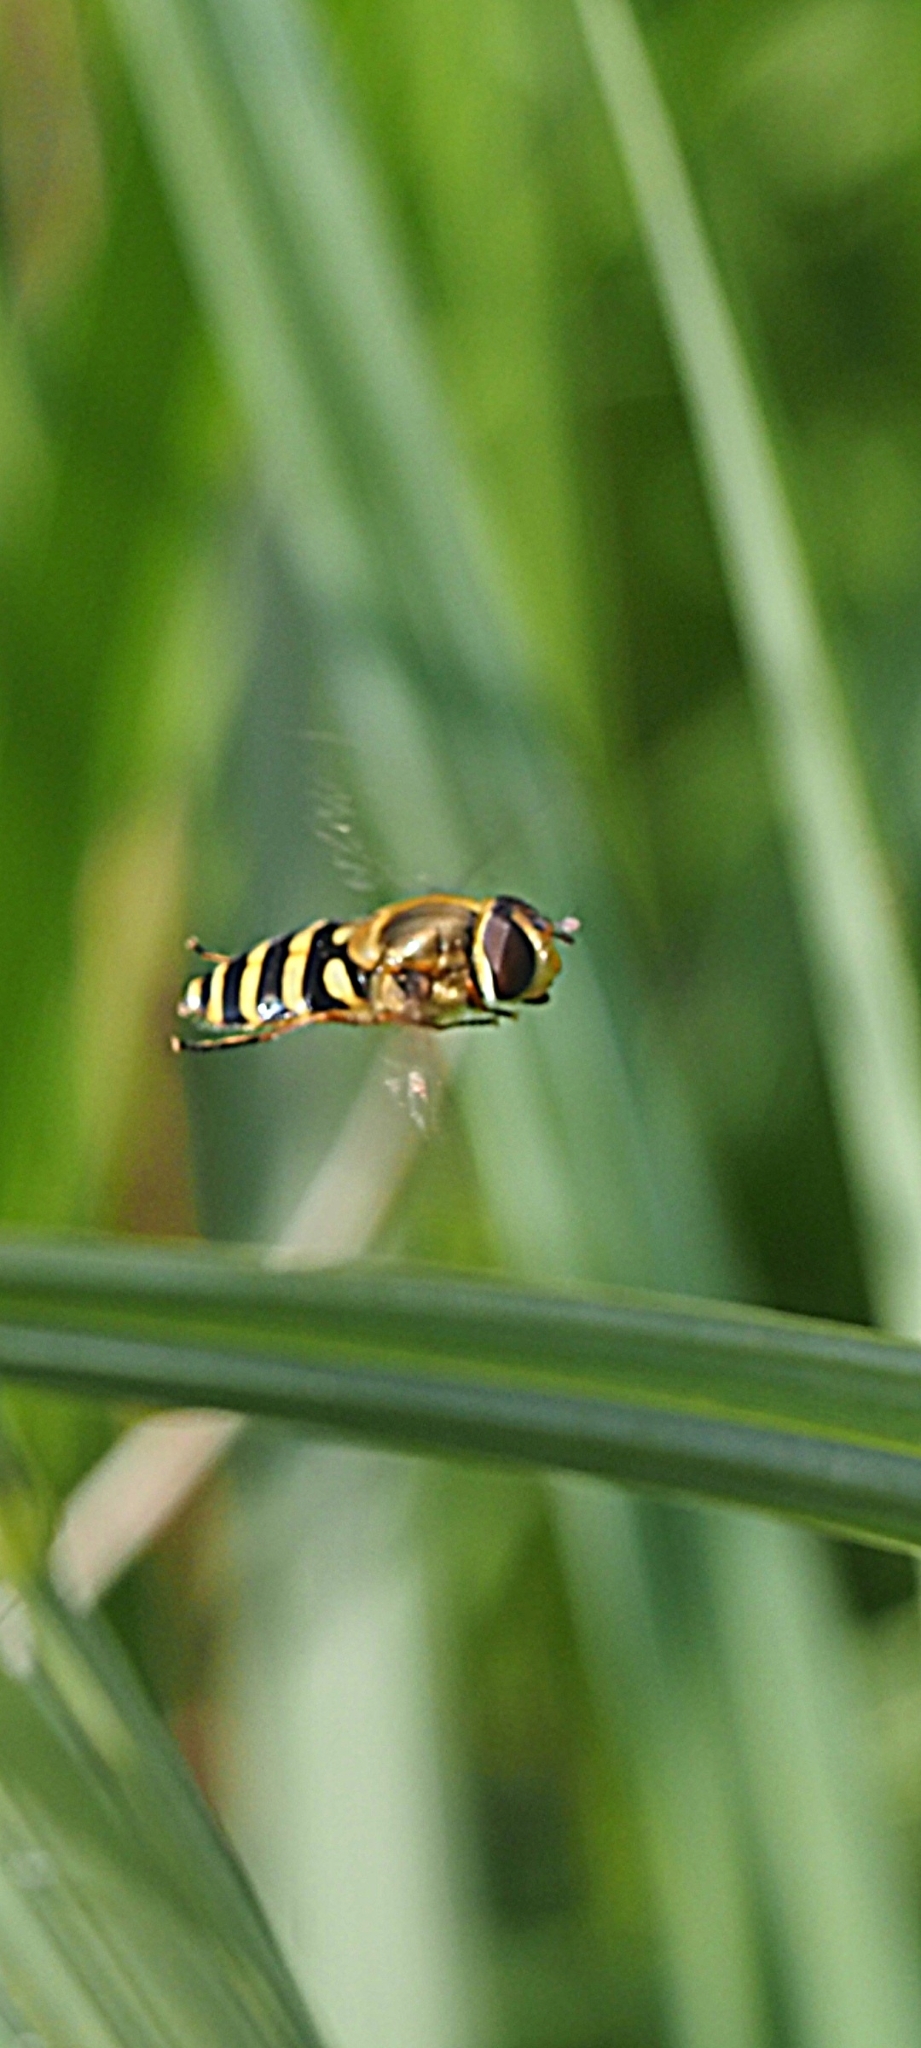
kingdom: Animalia
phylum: Arthropoda
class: Insecta
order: Diptera
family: Syrphidae
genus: Syrphus
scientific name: Syrphus ribesii
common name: Common flower fly
